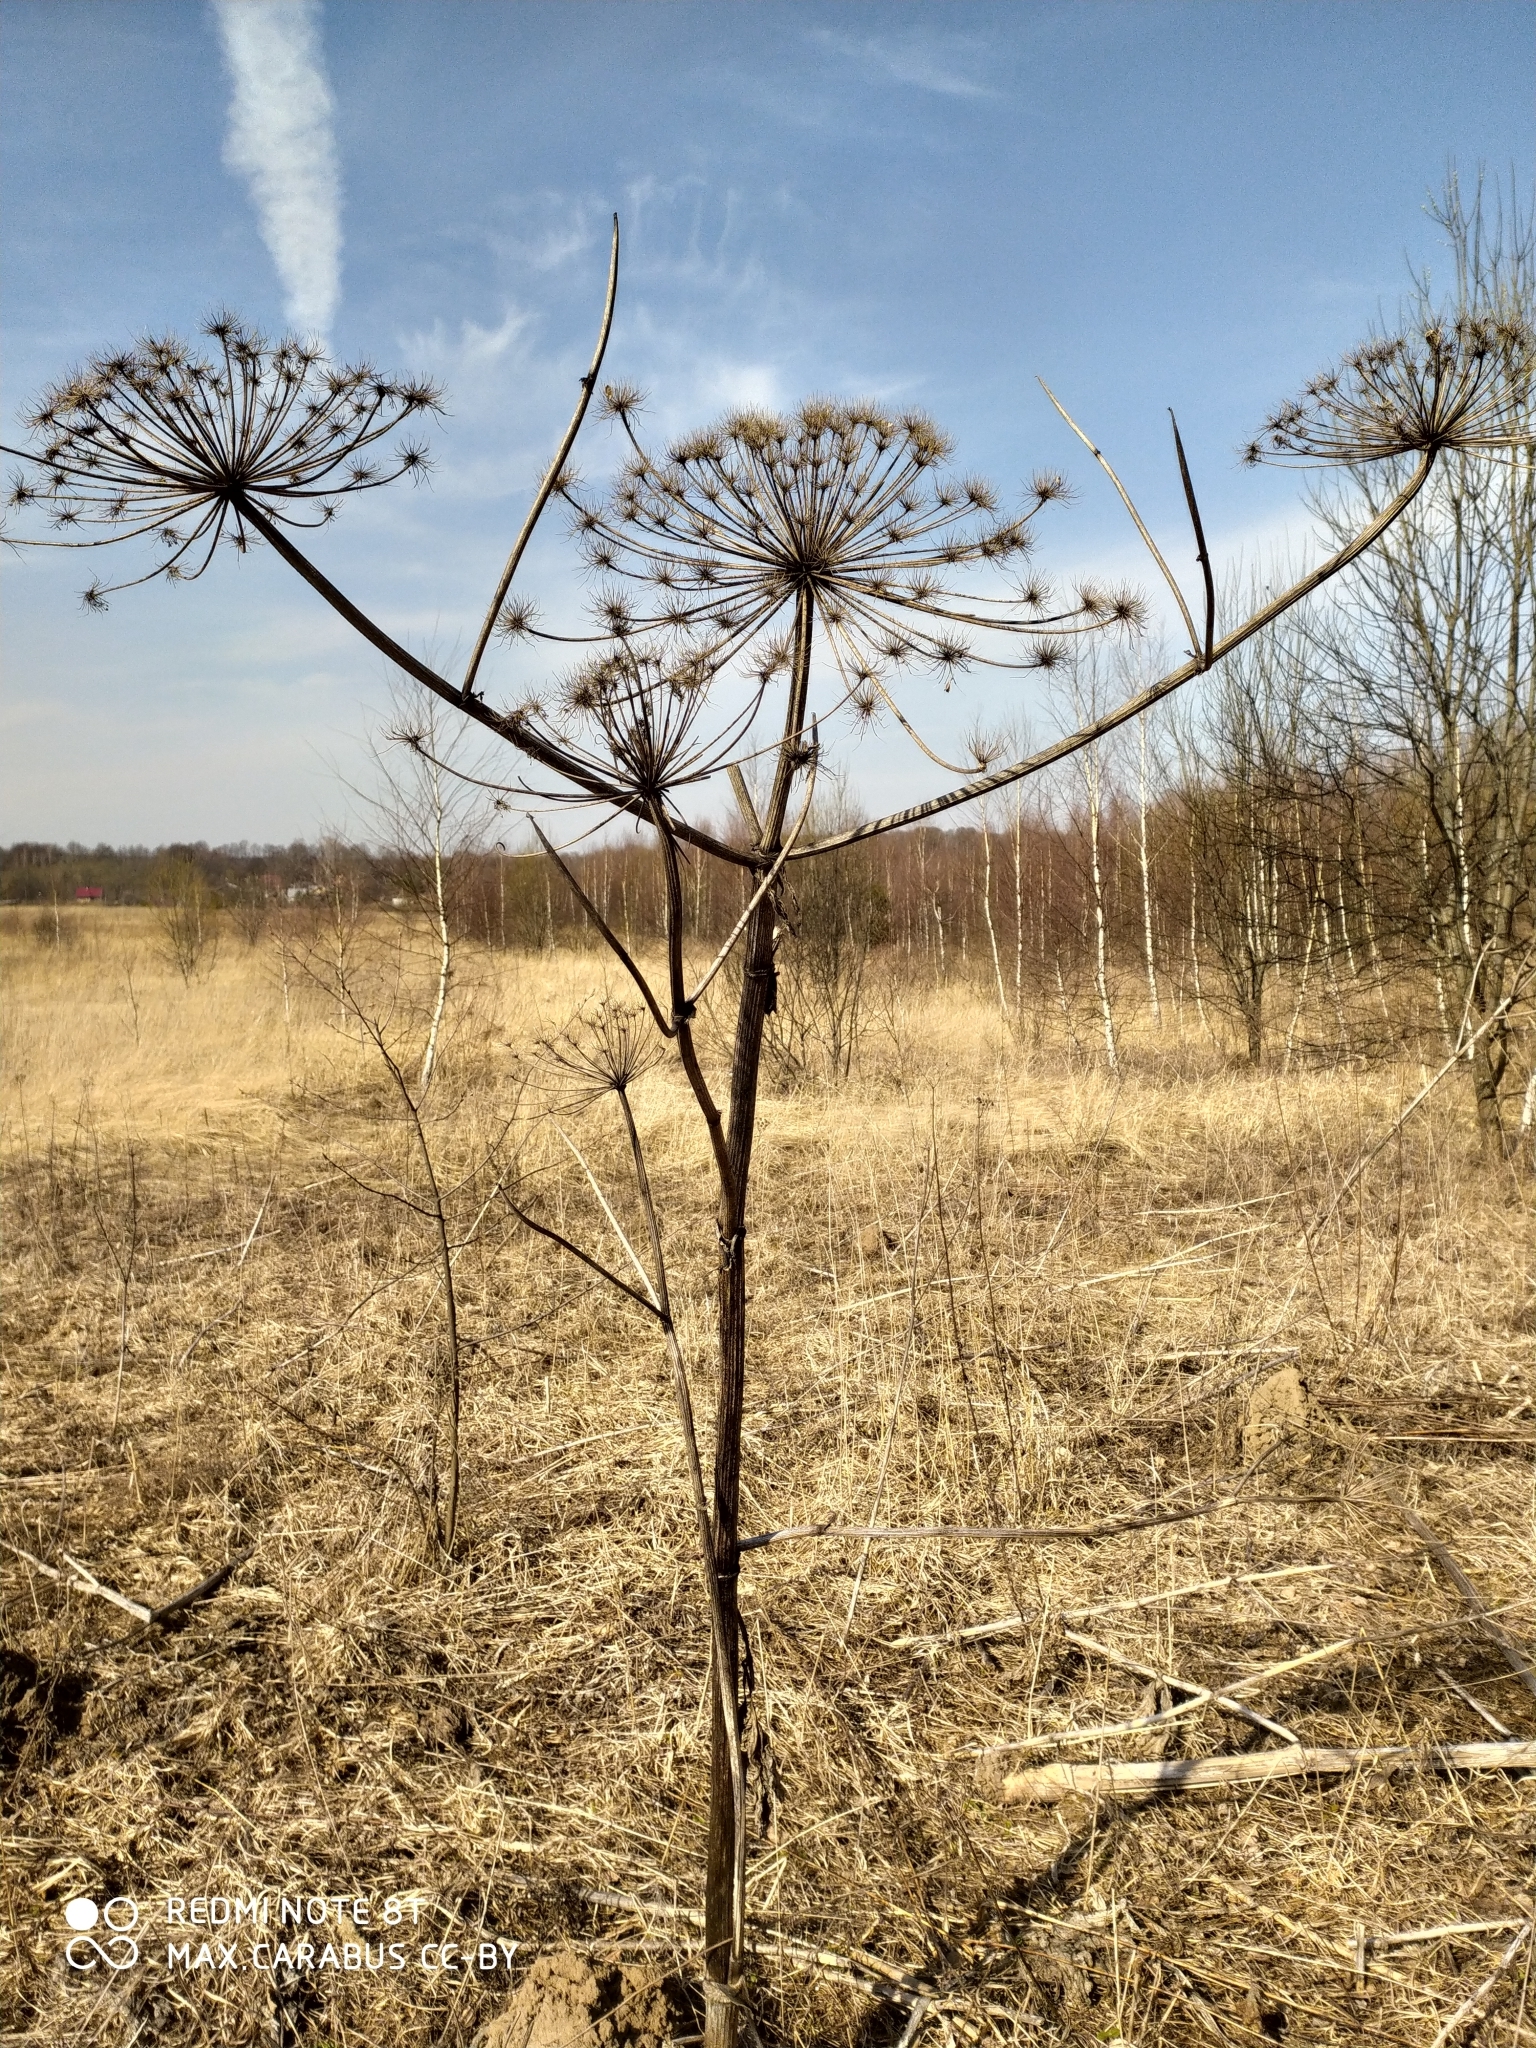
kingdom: Plantae
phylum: Tracheophyta
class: Magnoliopsida
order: Apiales
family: Apiaceae
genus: Heracleum
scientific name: Heracleum sosnowskyi
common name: Sosnowsky's hogweed
